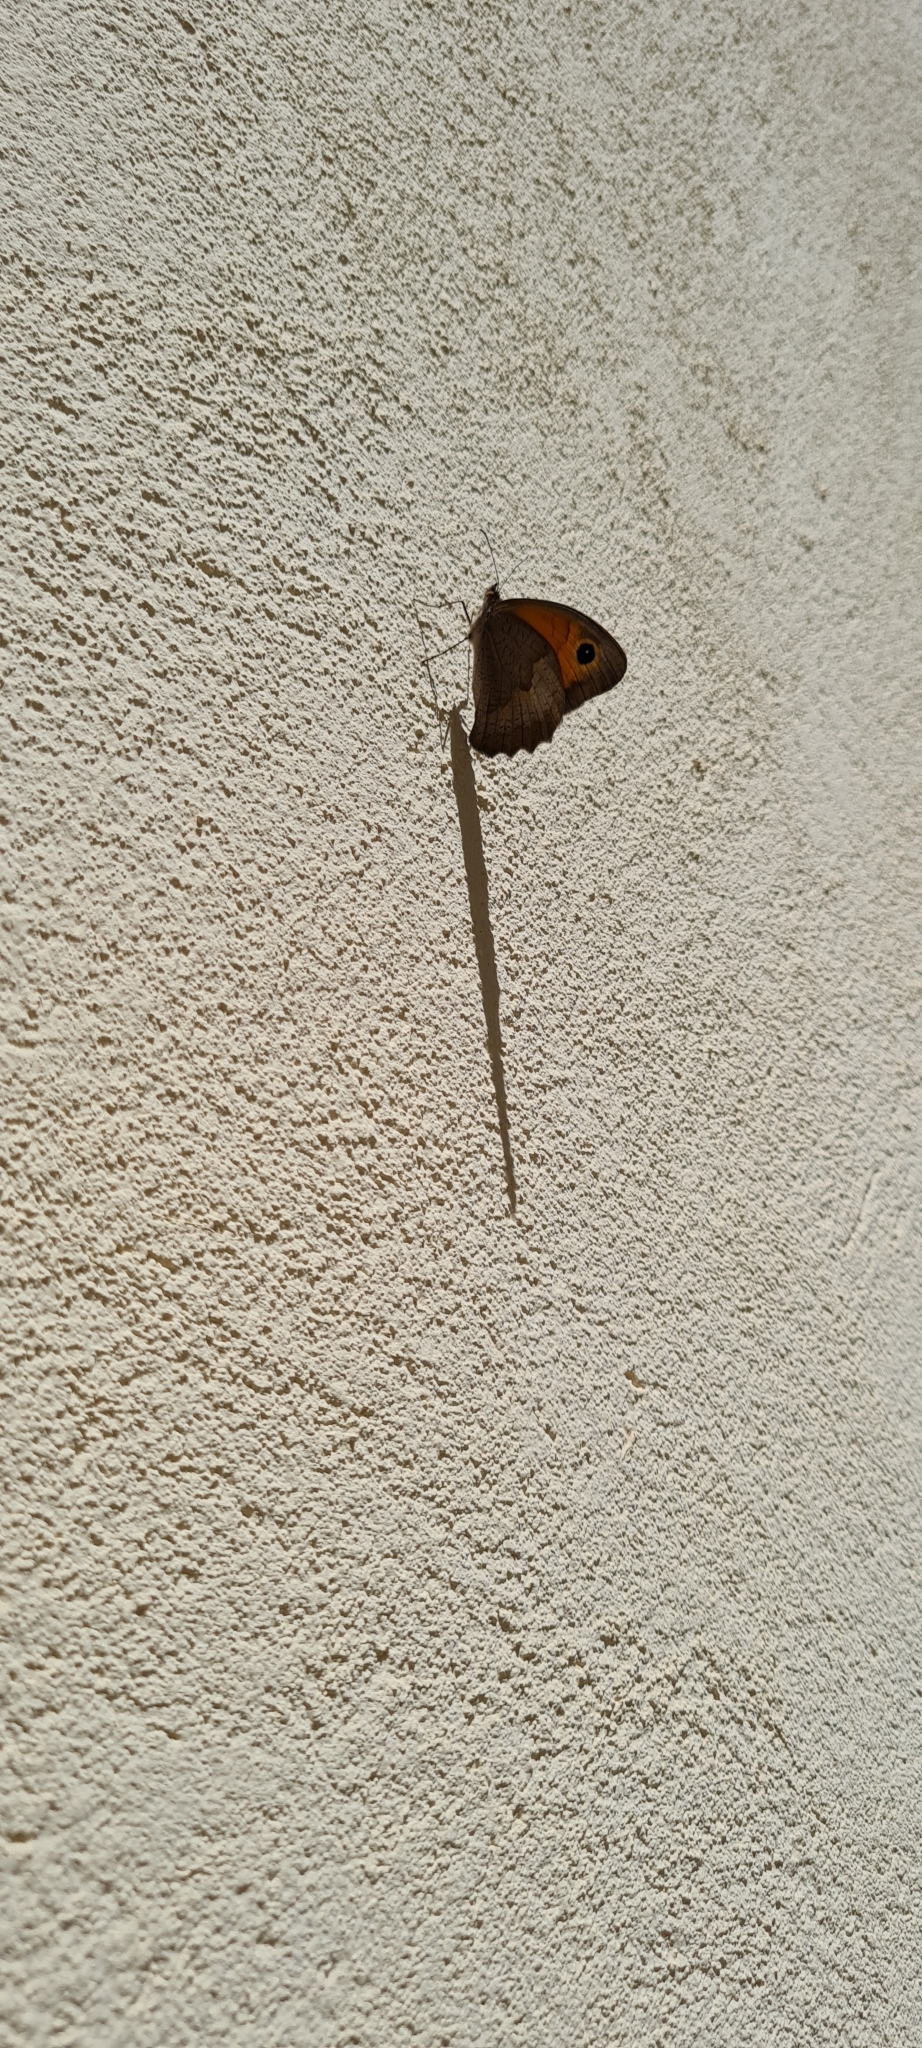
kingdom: Animalia
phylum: Arthropoda
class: Insecta
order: Lepidoptera
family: Nymphalidae
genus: Maniola
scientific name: Maniola jurtina
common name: Meadow brown
